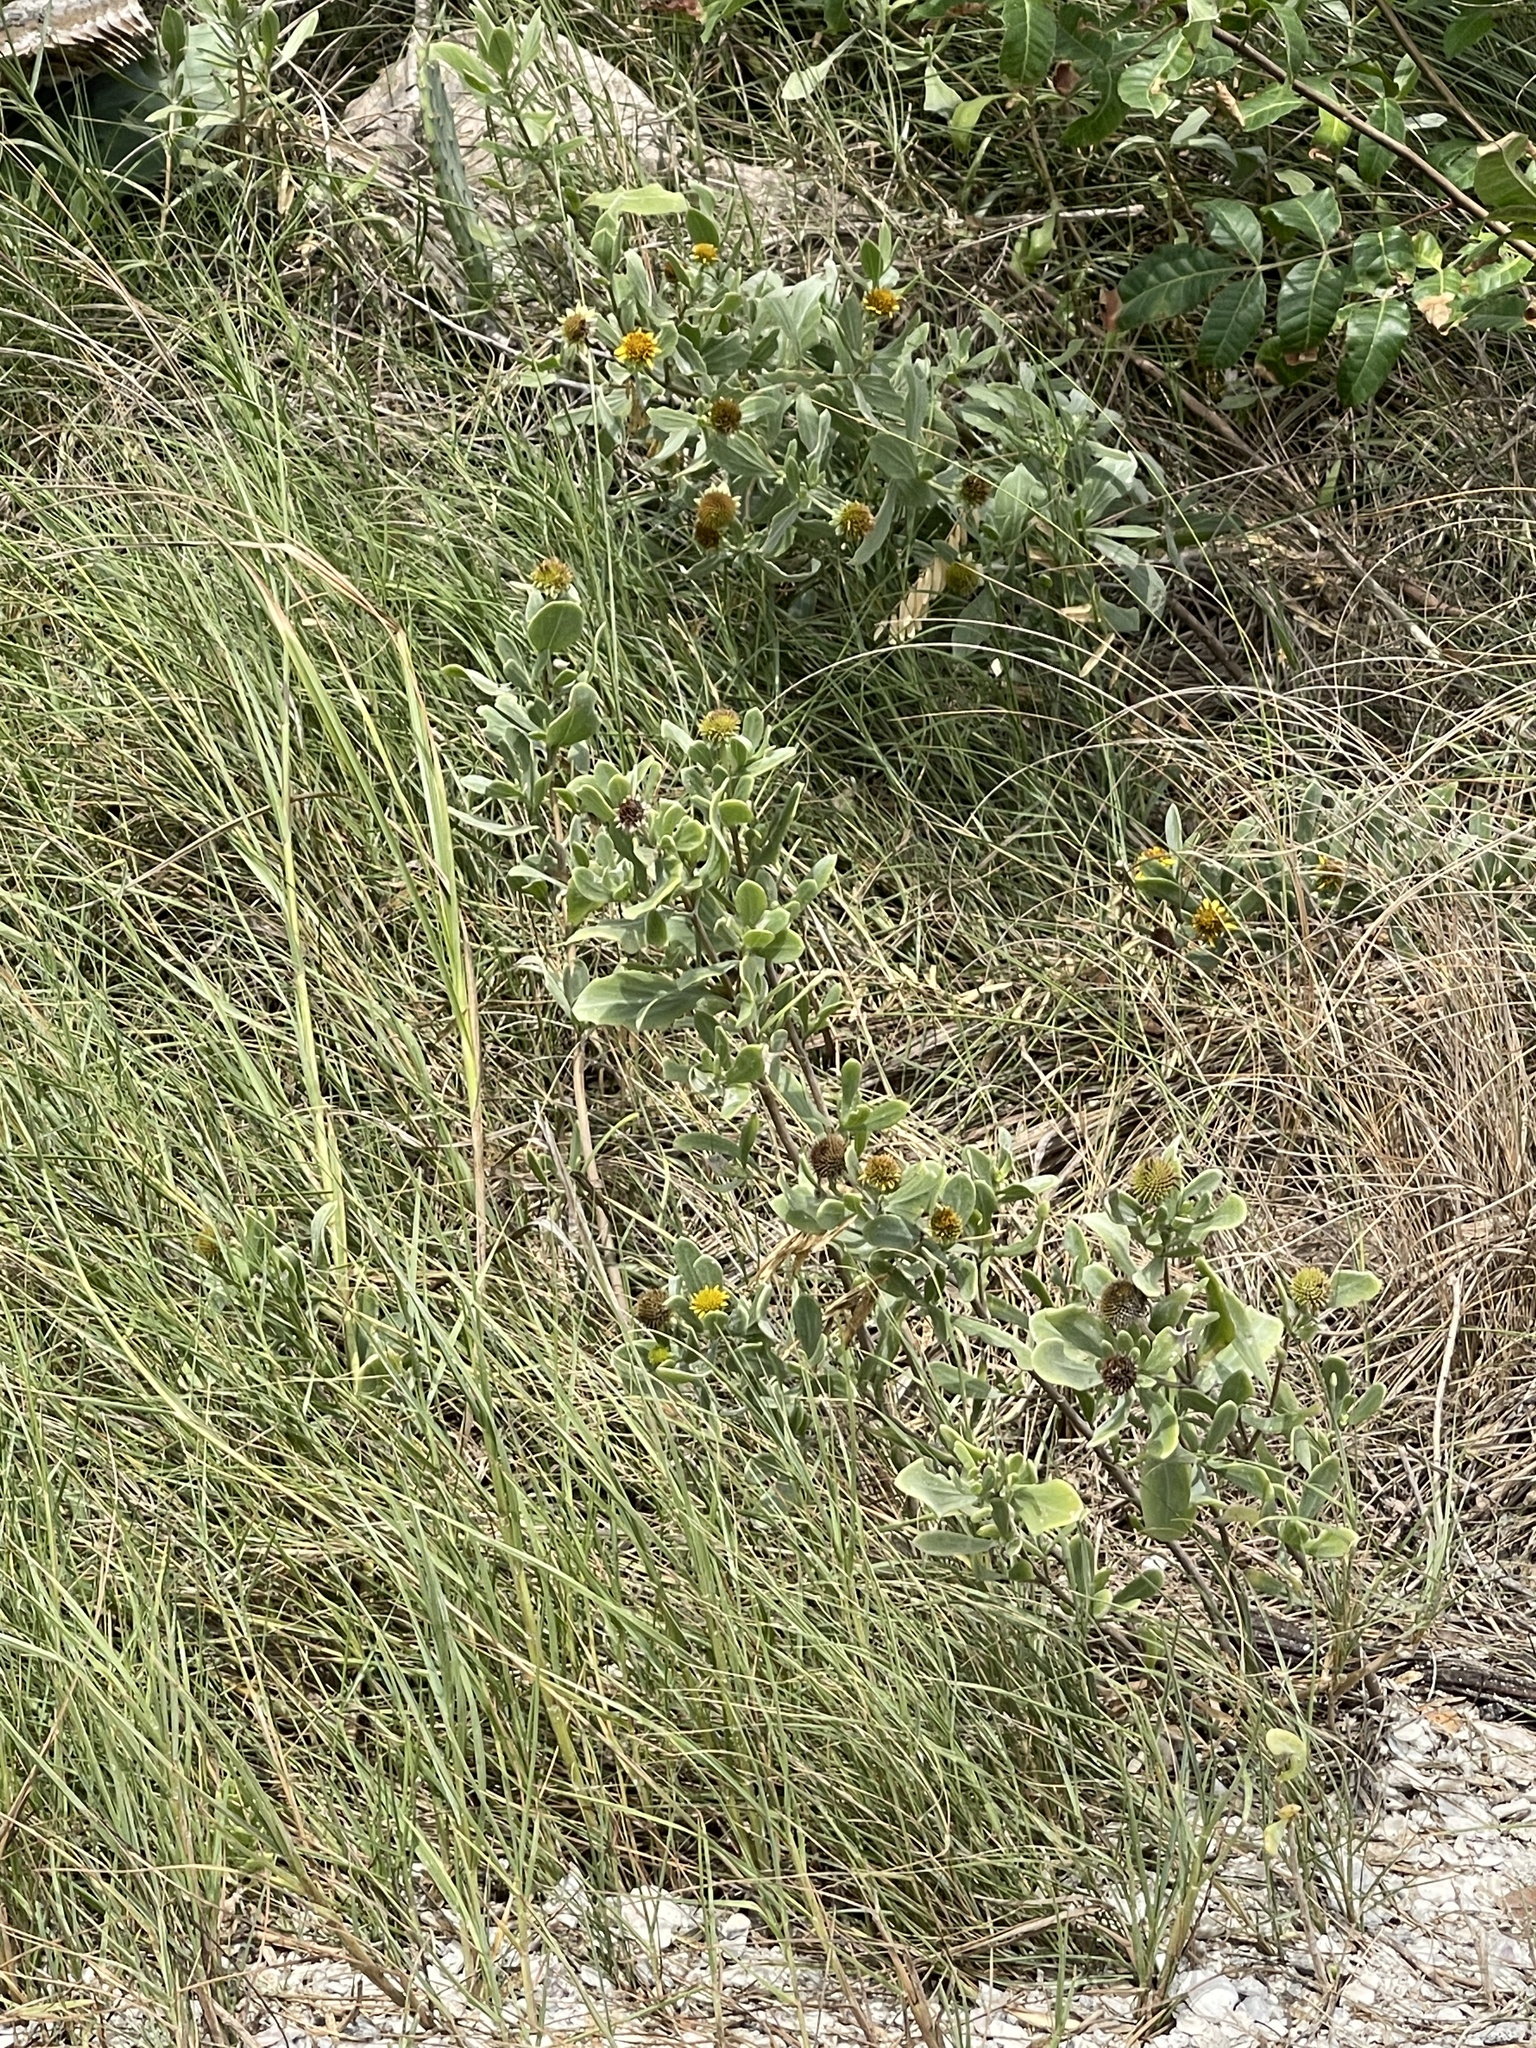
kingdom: Plantae
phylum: Tracheophyta
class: Magnoliopsida
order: Asterales
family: Asteraceae
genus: Borrichia
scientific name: Borrichia frutescens
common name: Sea oxeye
